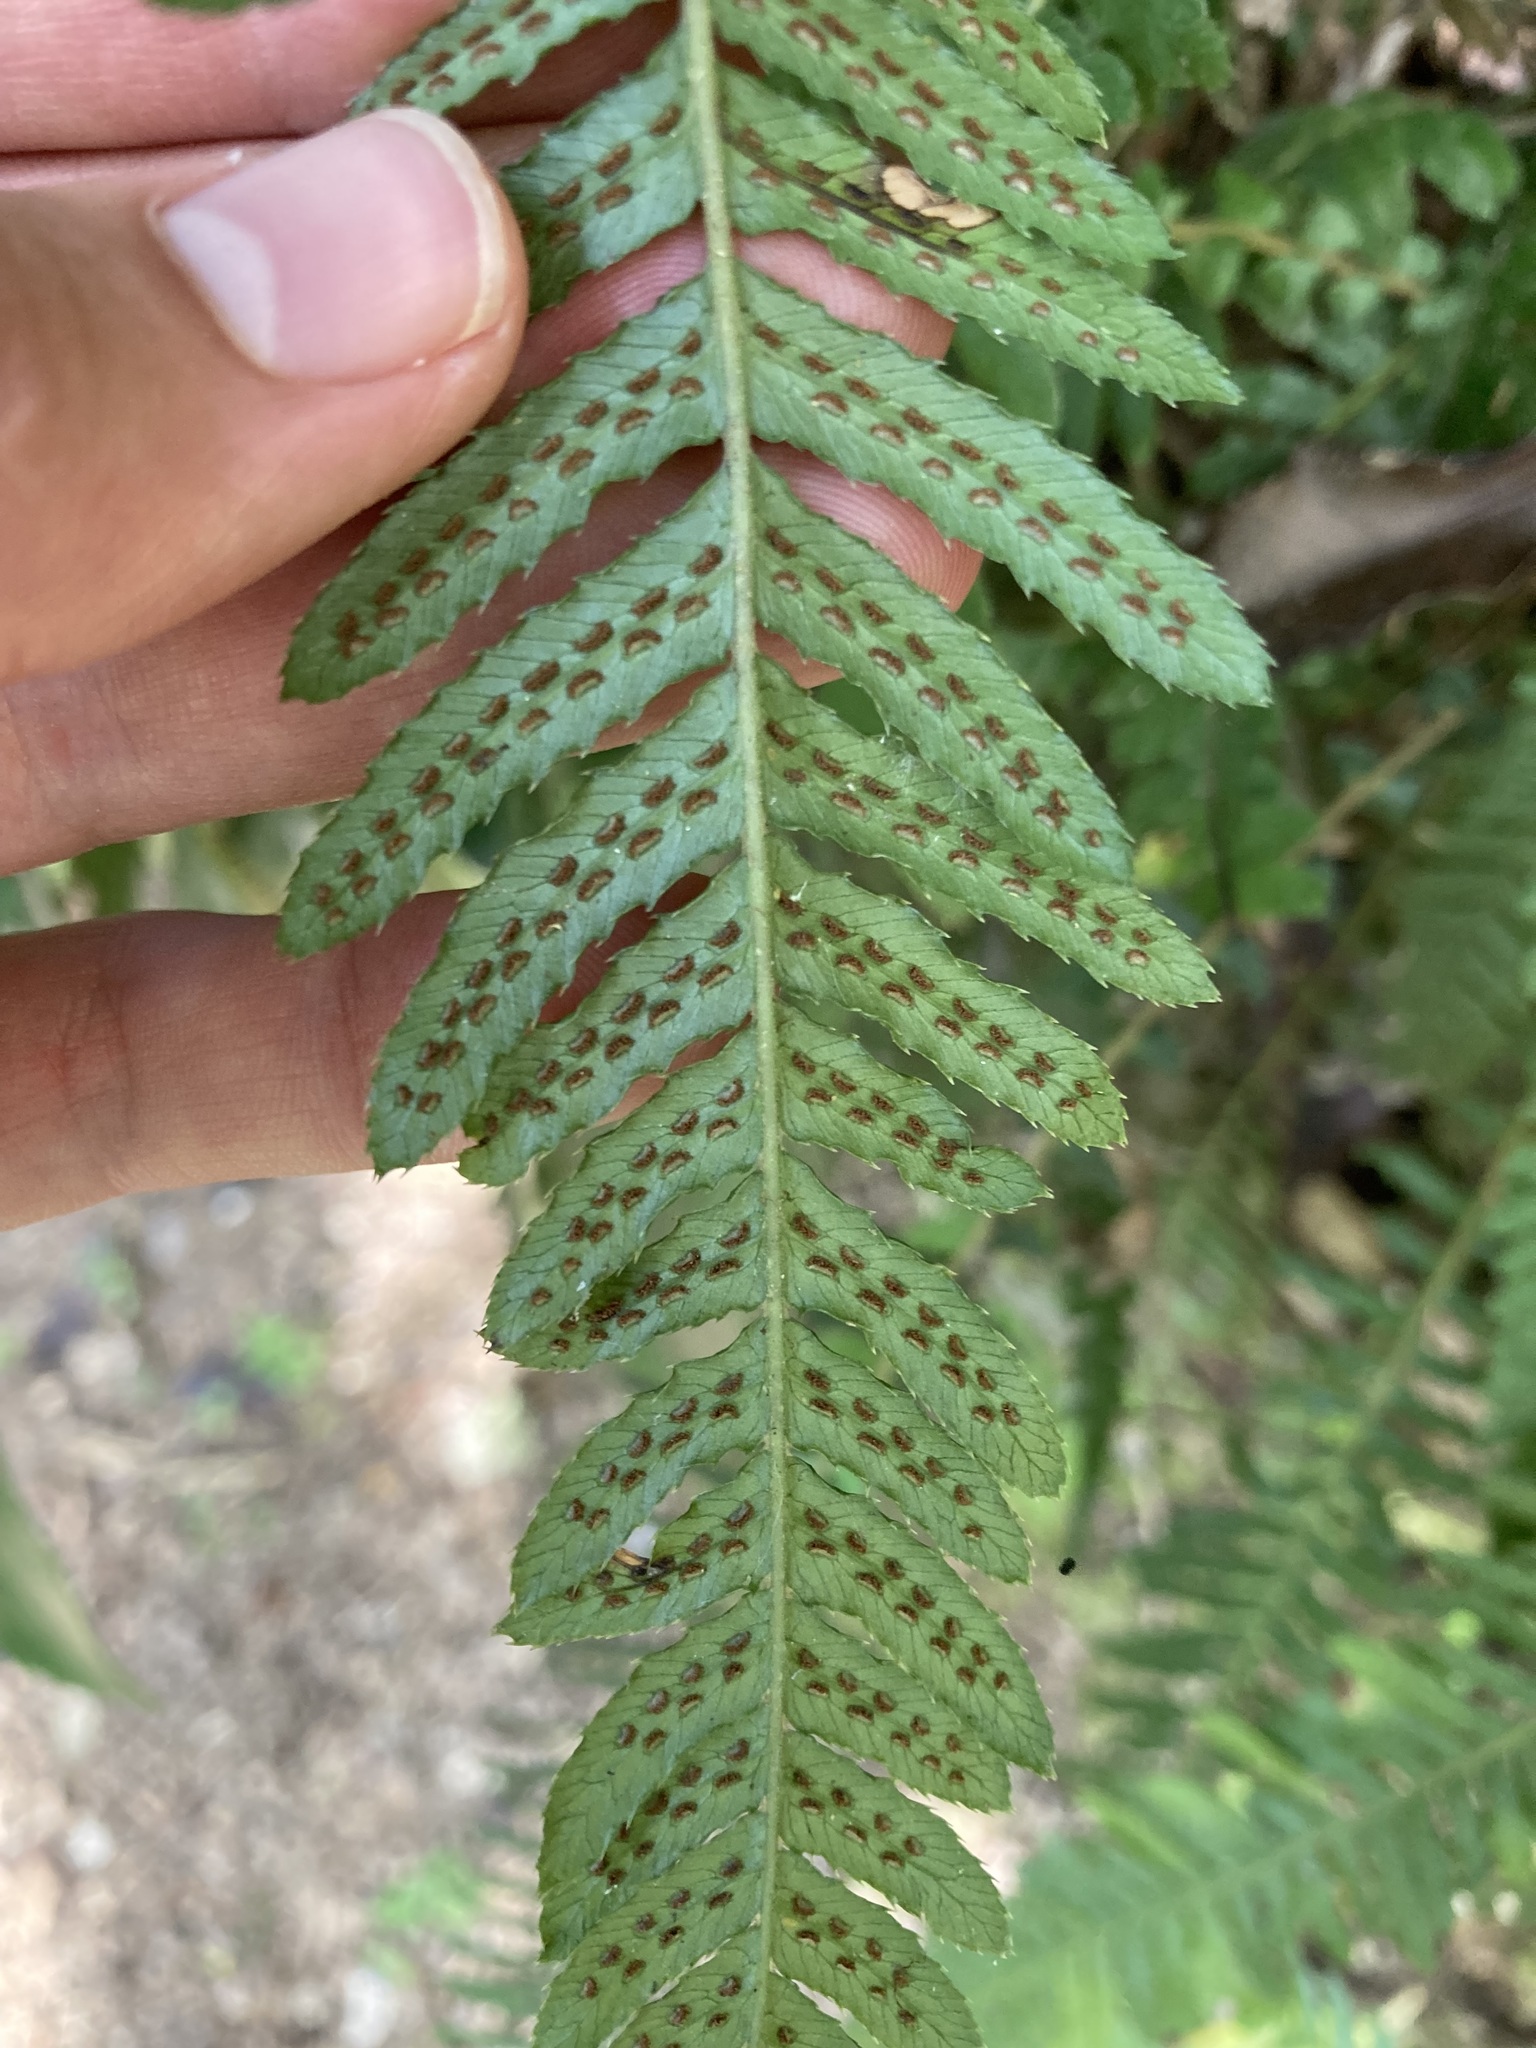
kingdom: Plantae
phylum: Tracheophyta
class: Polypodiopsida
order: Polypodiales
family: Blechnaceae
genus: Doodia
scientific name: Doodia australis
